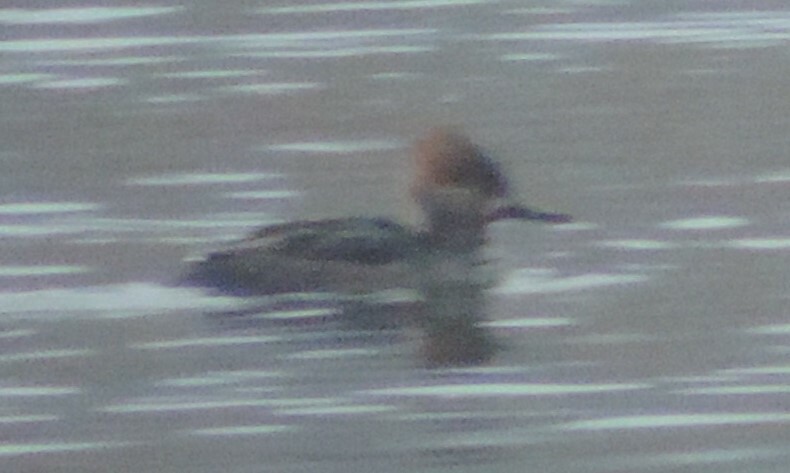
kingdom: Animalia
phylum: Chordata
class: Aves
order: Anseriformes
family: Anatidae
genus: Lophodytes
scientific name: Lophodytes cucullatus
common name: Hooded merganser
